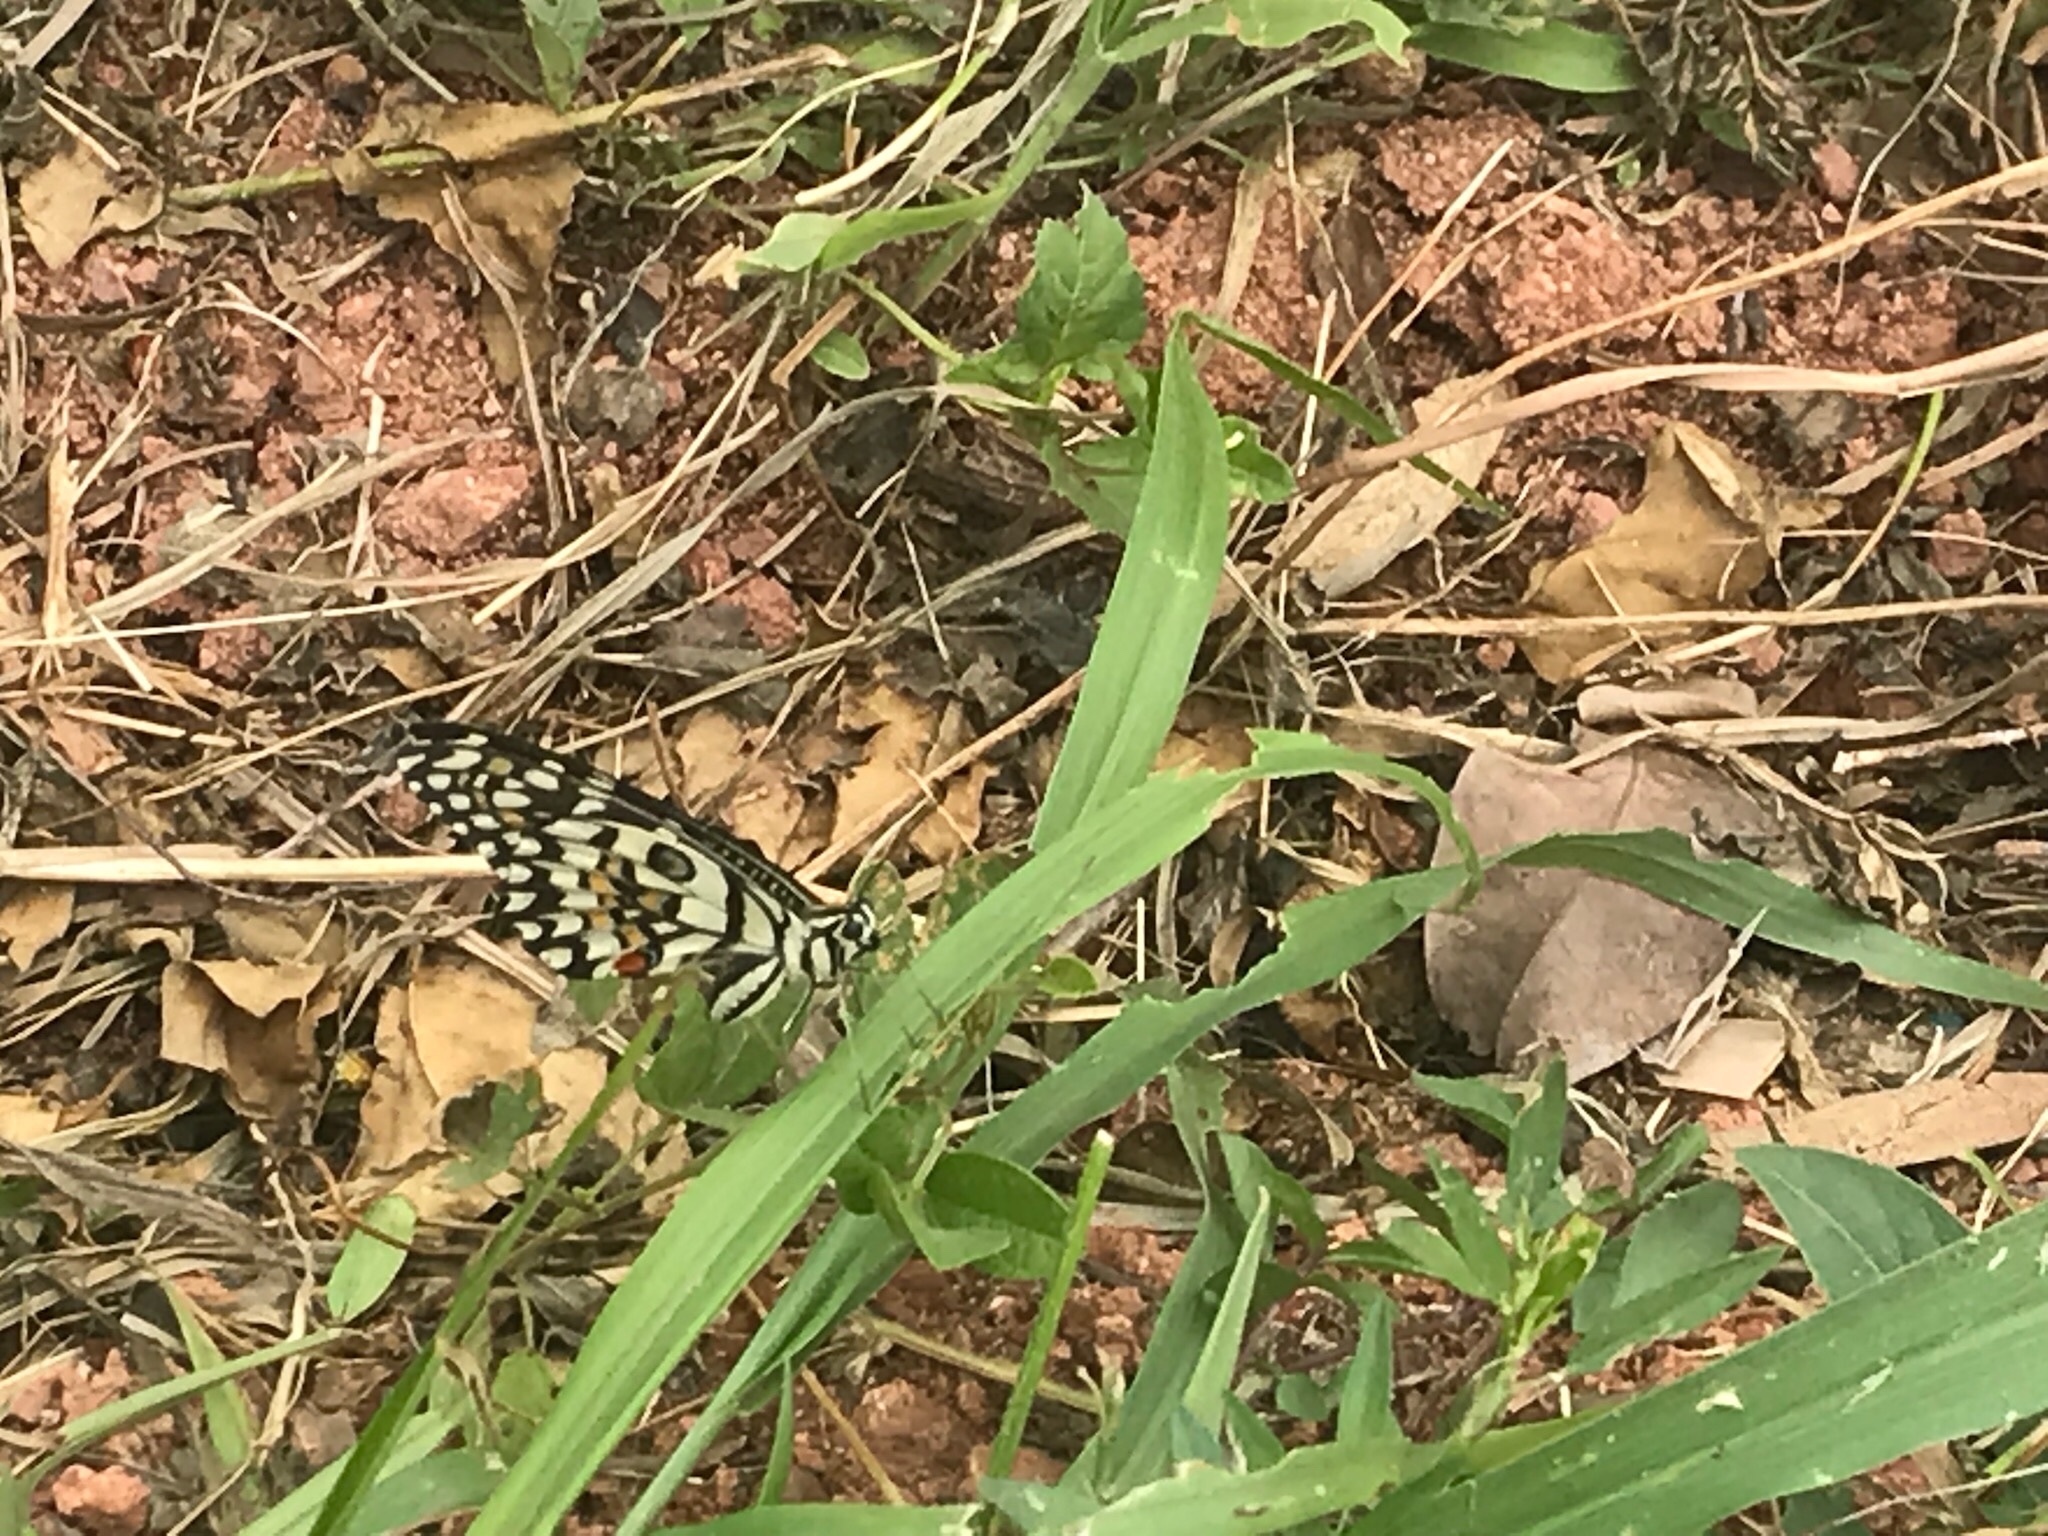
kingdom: Animalia
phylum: Arthropoda
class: Insecta
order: Lepidoptera
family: Papilionidae
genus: Papilio
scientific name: Papilio demoleus
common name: Lime butterfly
